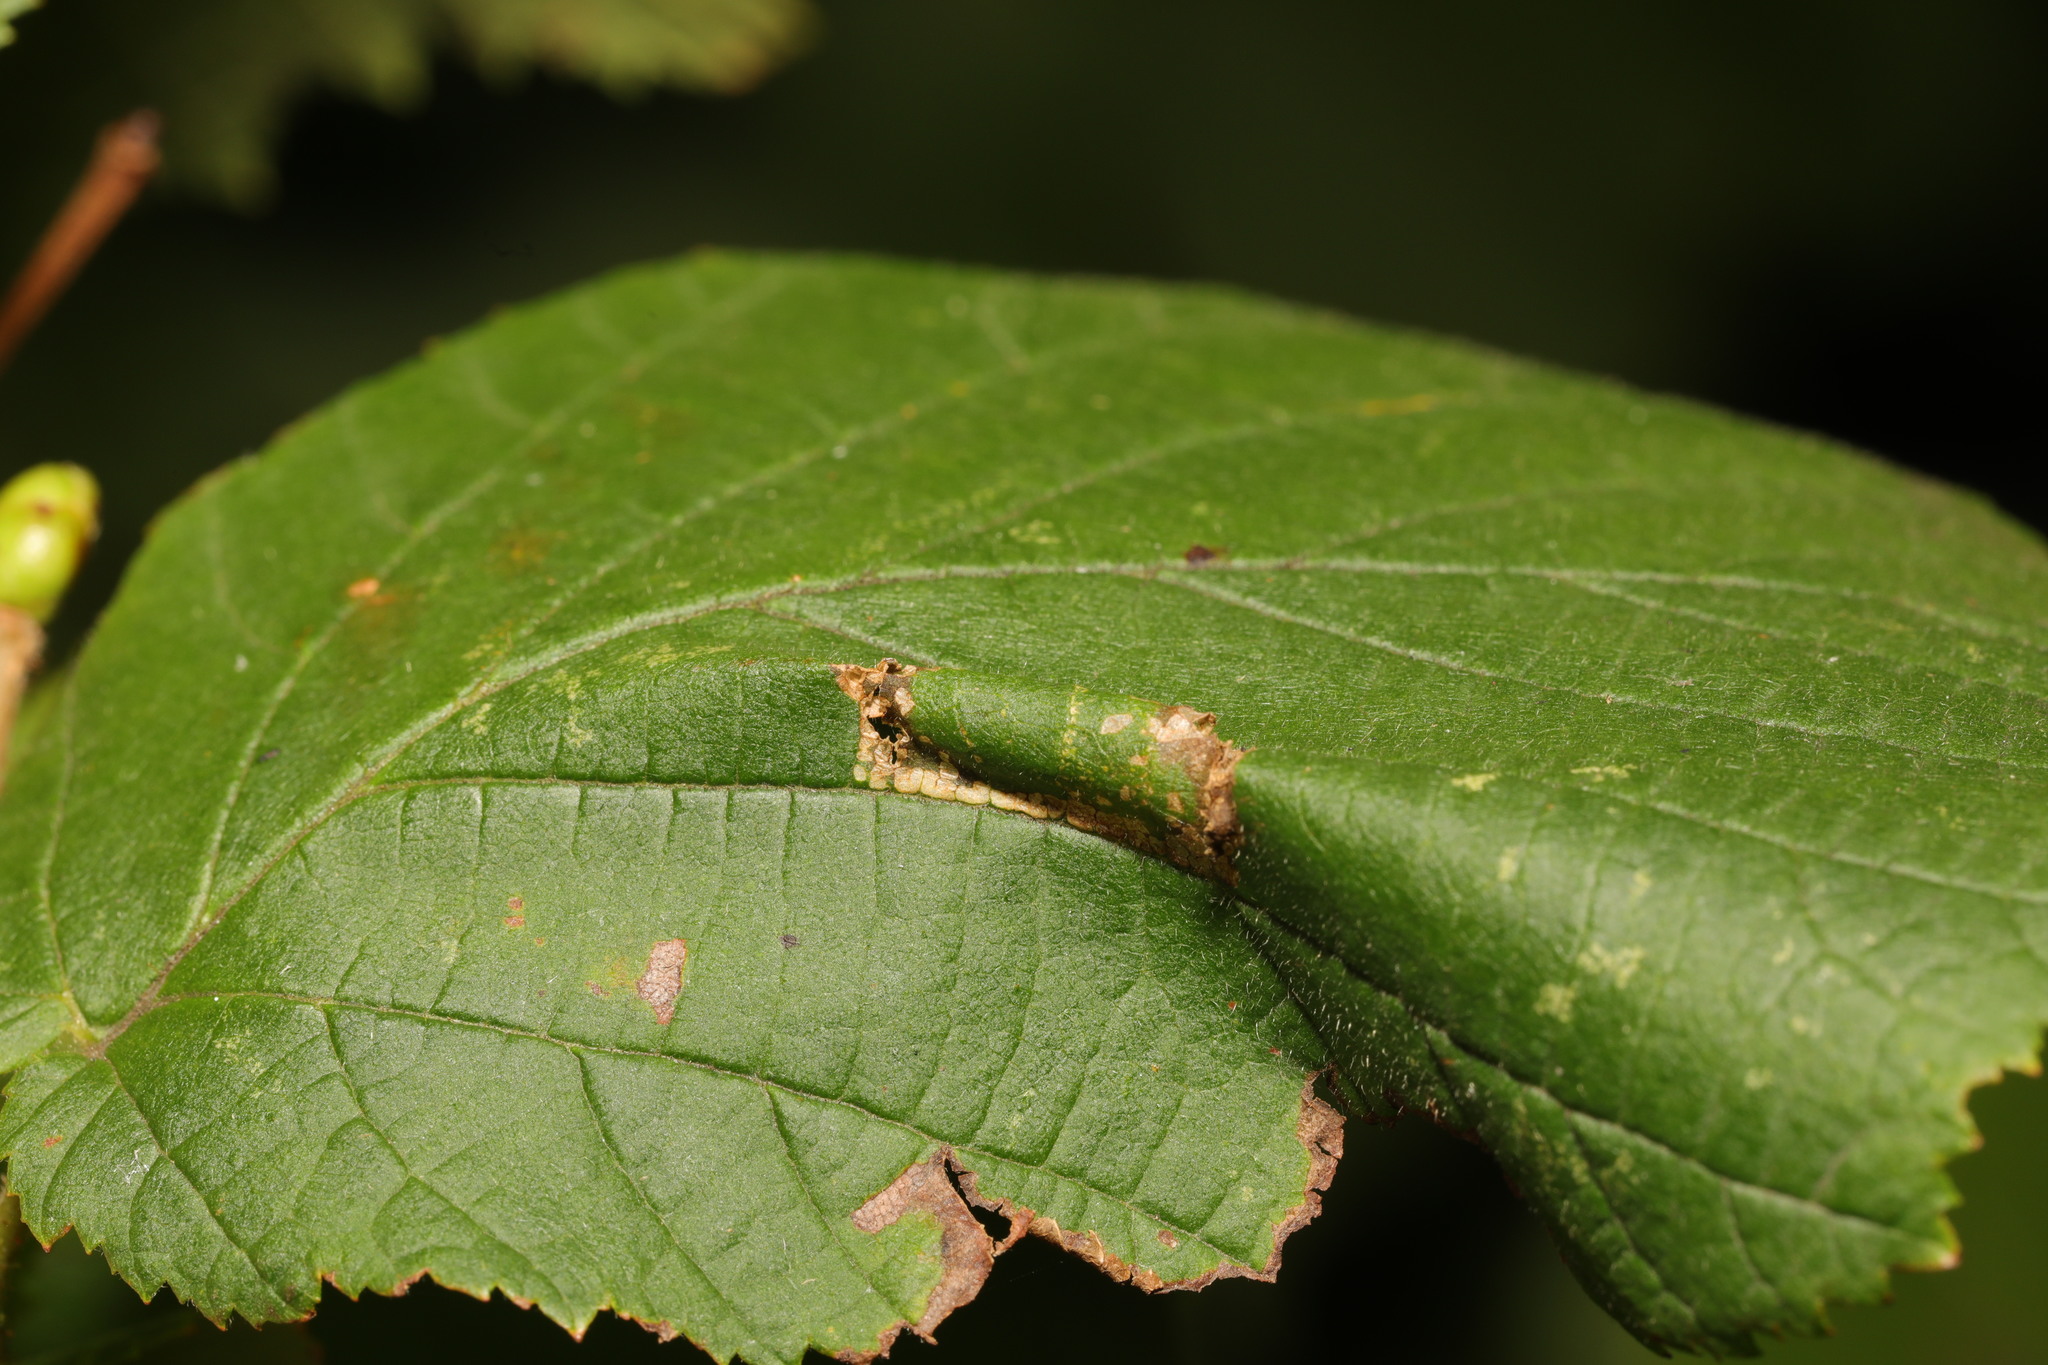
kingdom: Animalia
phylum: Arthropoda
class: Insecta
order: Lepidoptera
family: Gracillariidae
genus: Phyllonorycter
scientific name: Phyllonorycter nicellii
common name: Red hazel midget
